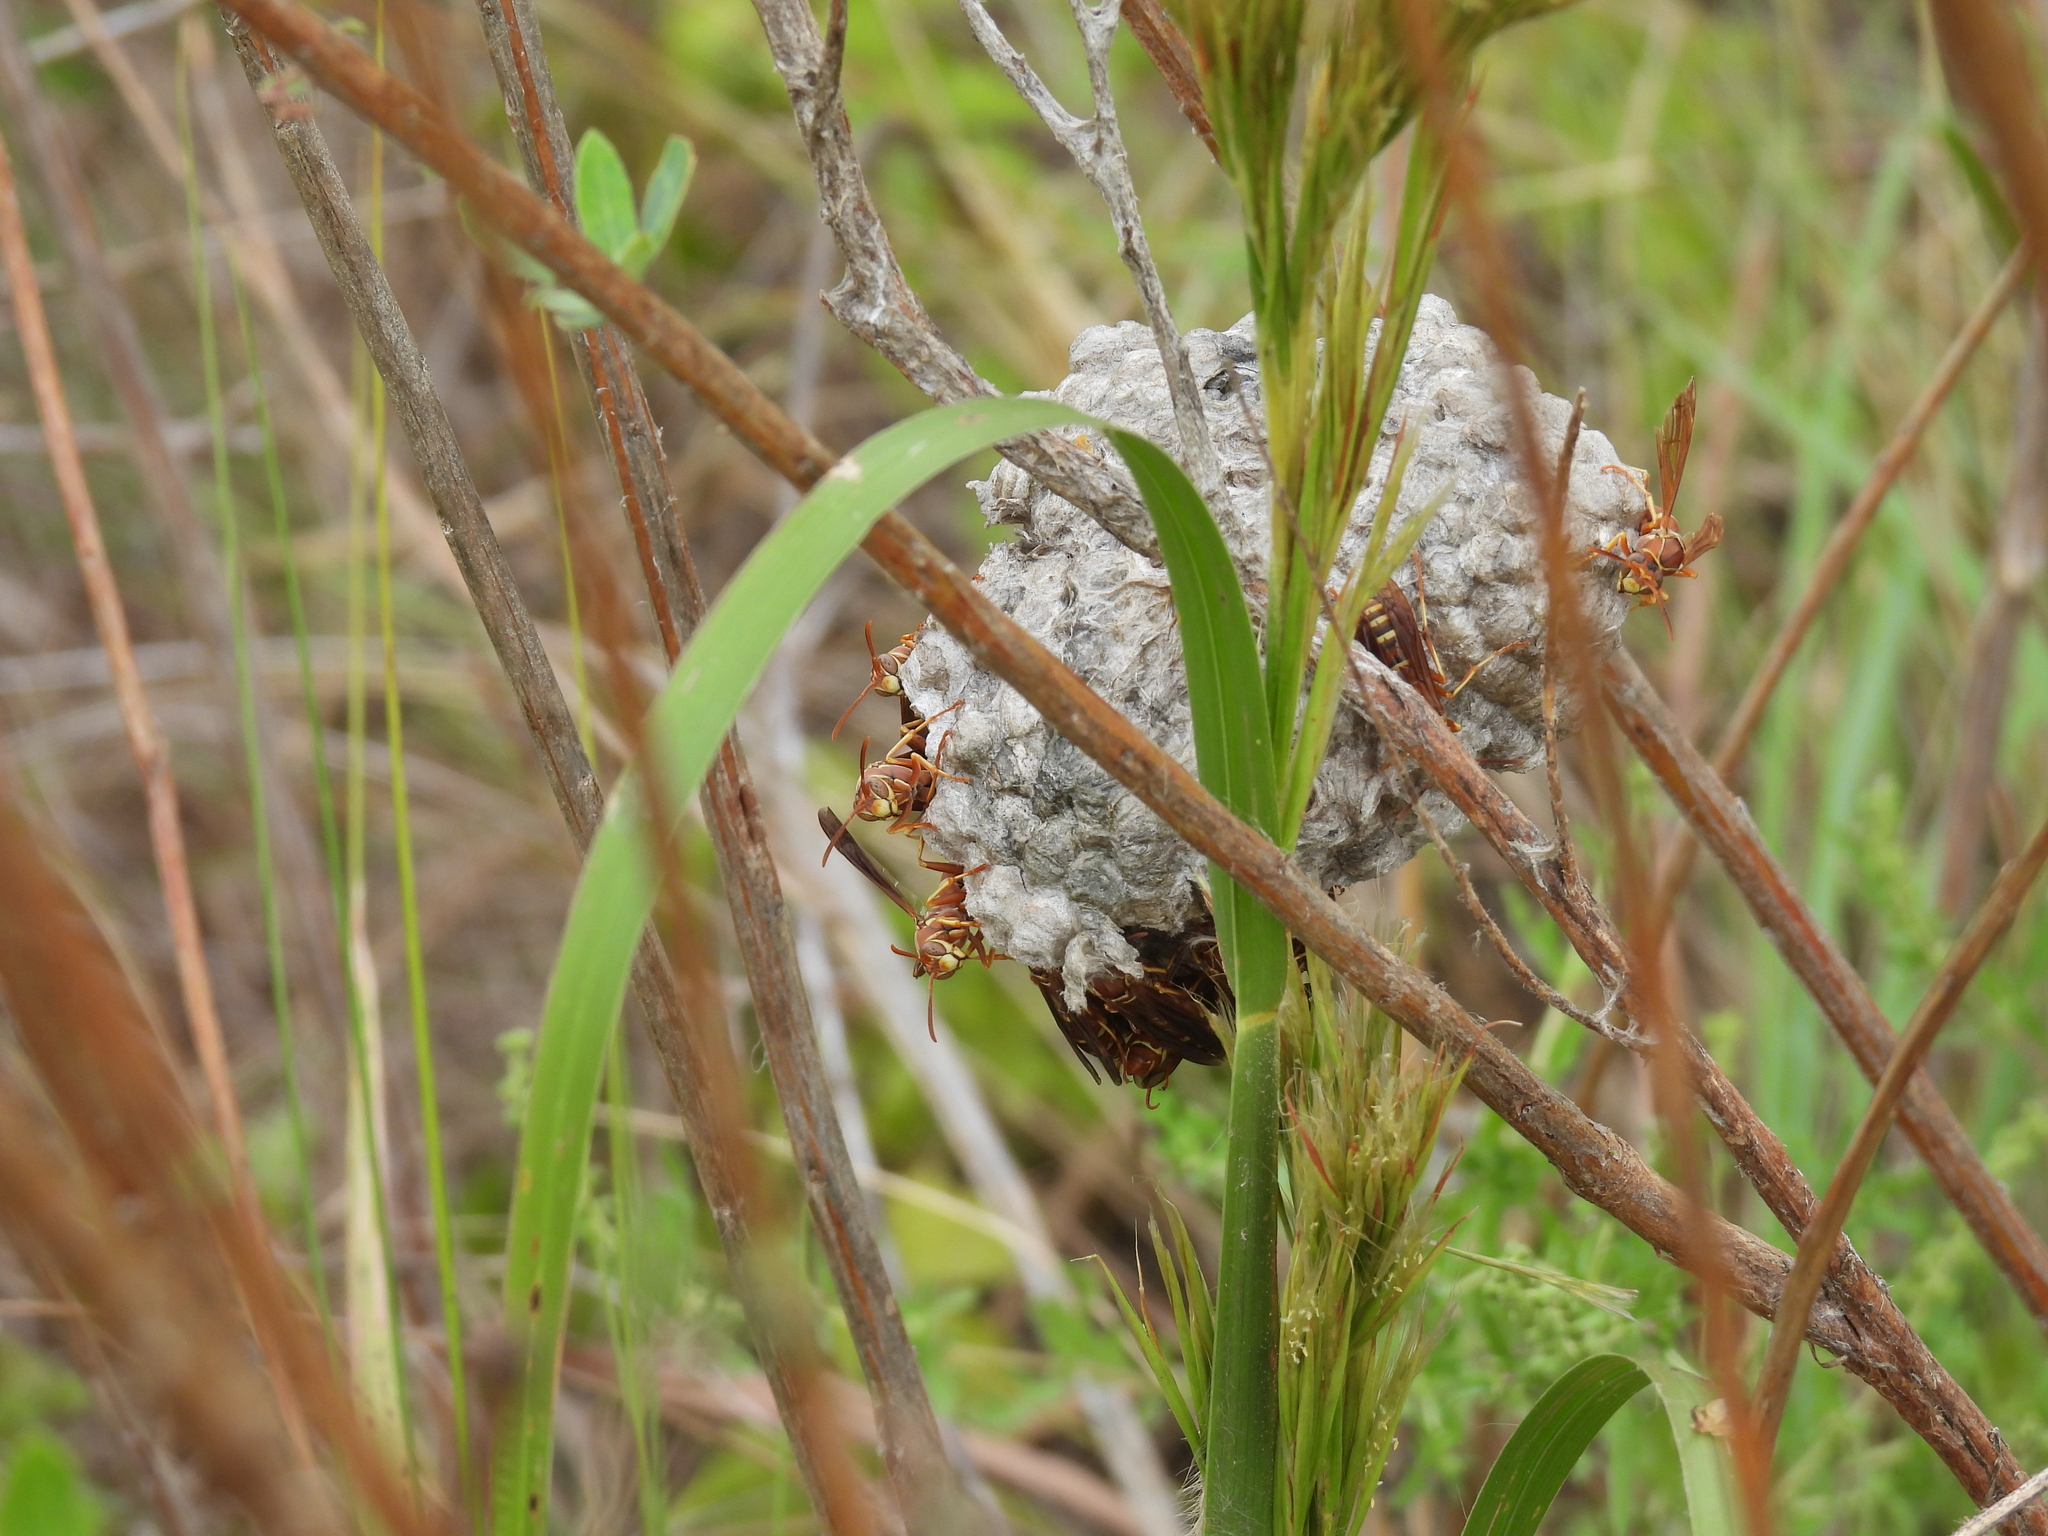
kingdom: Animalia
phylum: Arthropoda
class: Insecta
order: Hymenoptera
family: Eumenidae
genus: Polistes
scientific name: Polistes bellicosus
